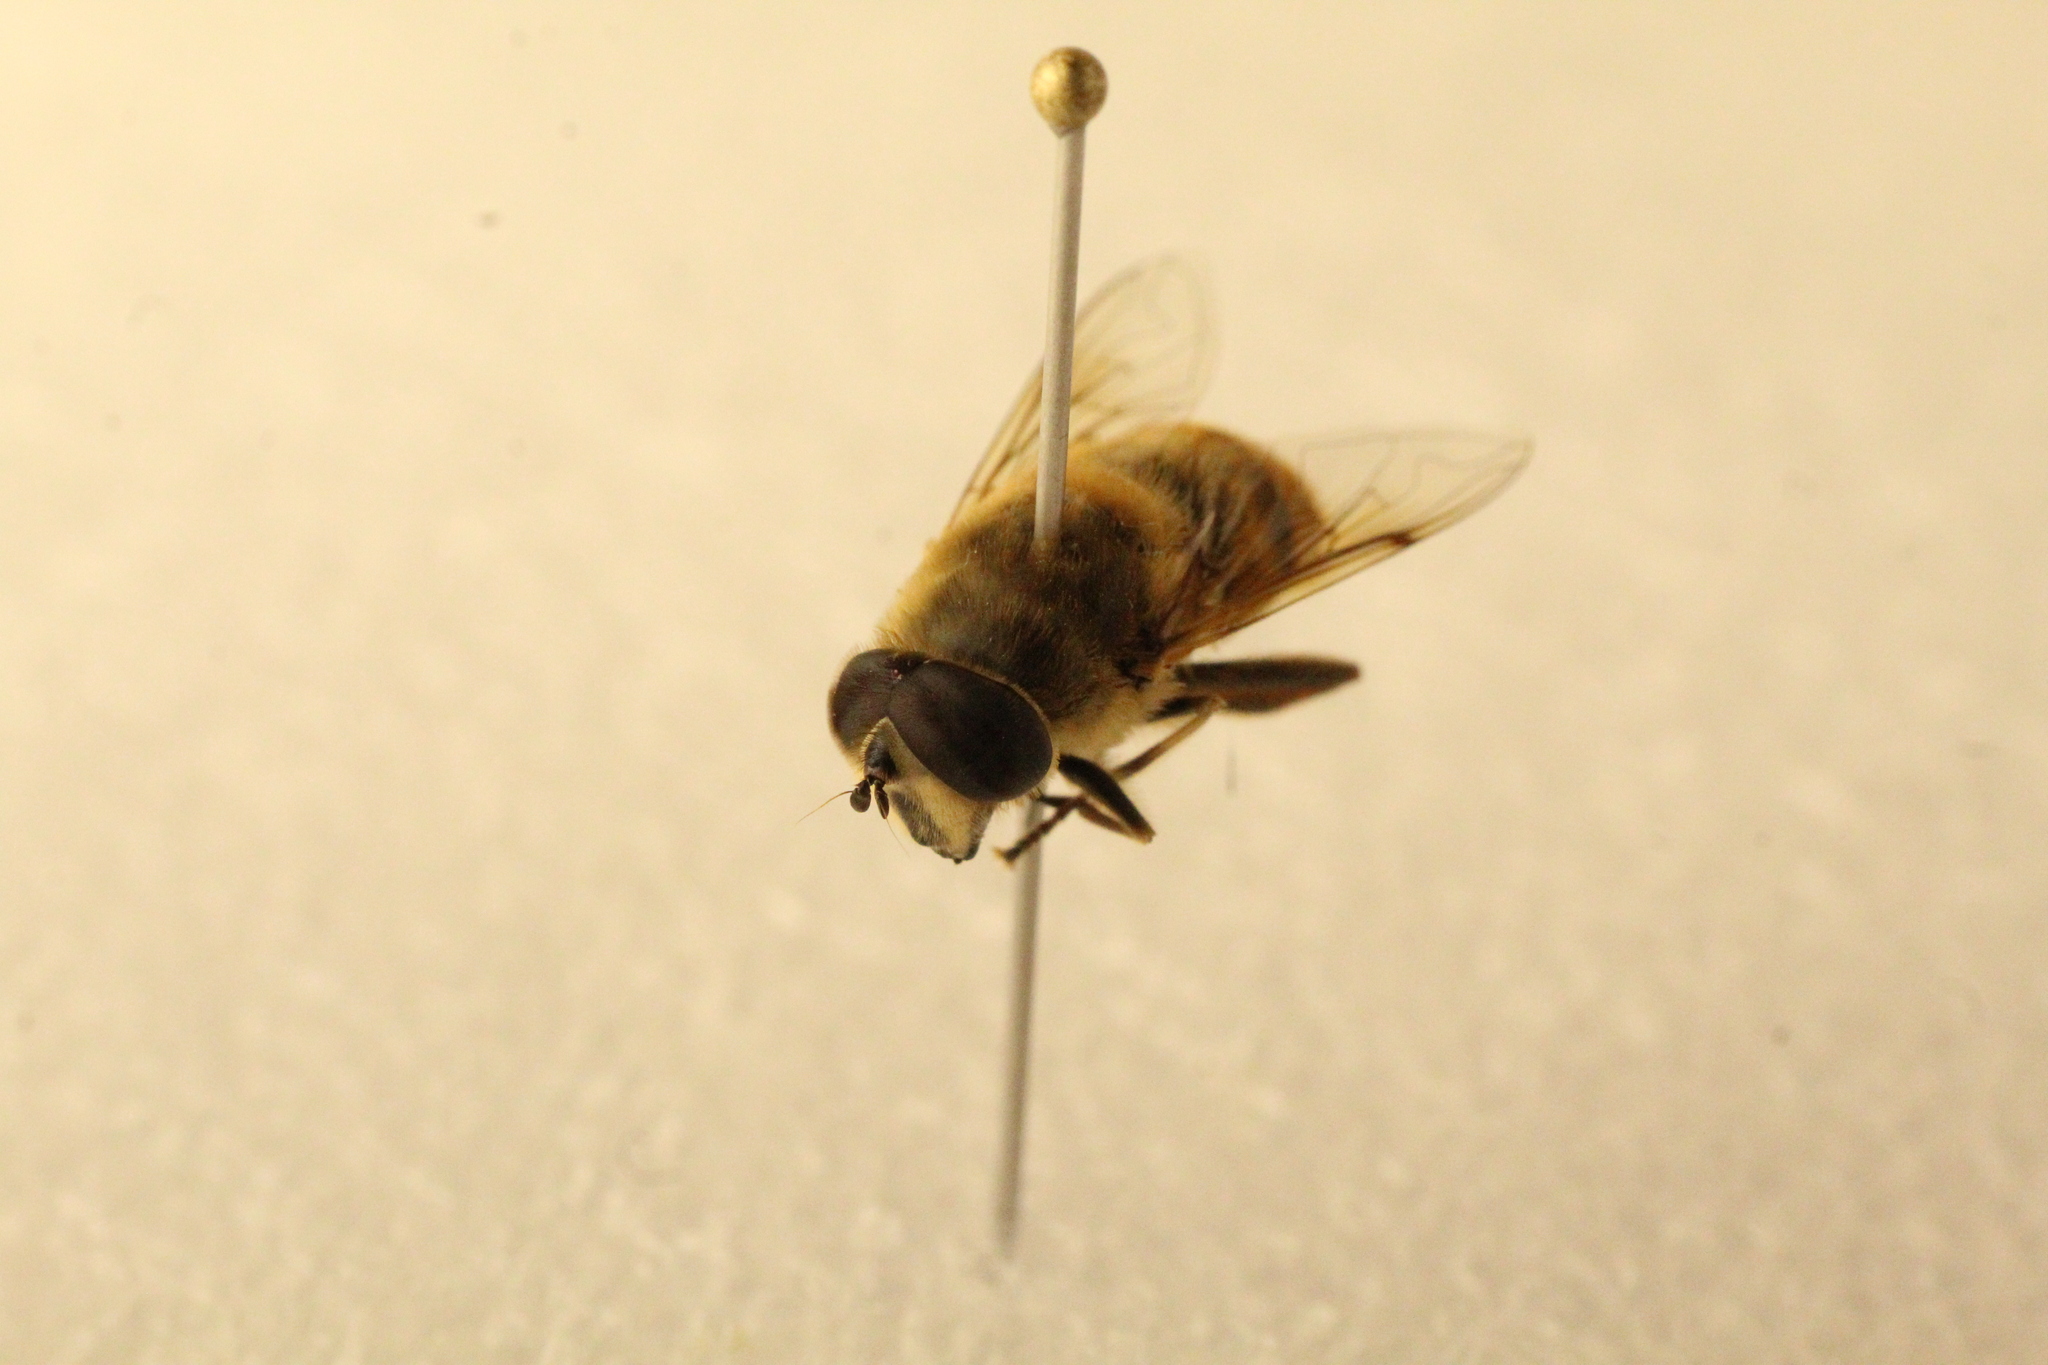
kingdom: Animalia
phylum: Arthropoda
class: Insecta
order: Diptera
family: Syrphidae
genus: Eristalis
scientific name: Eristalis tenax
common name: Drone fly
